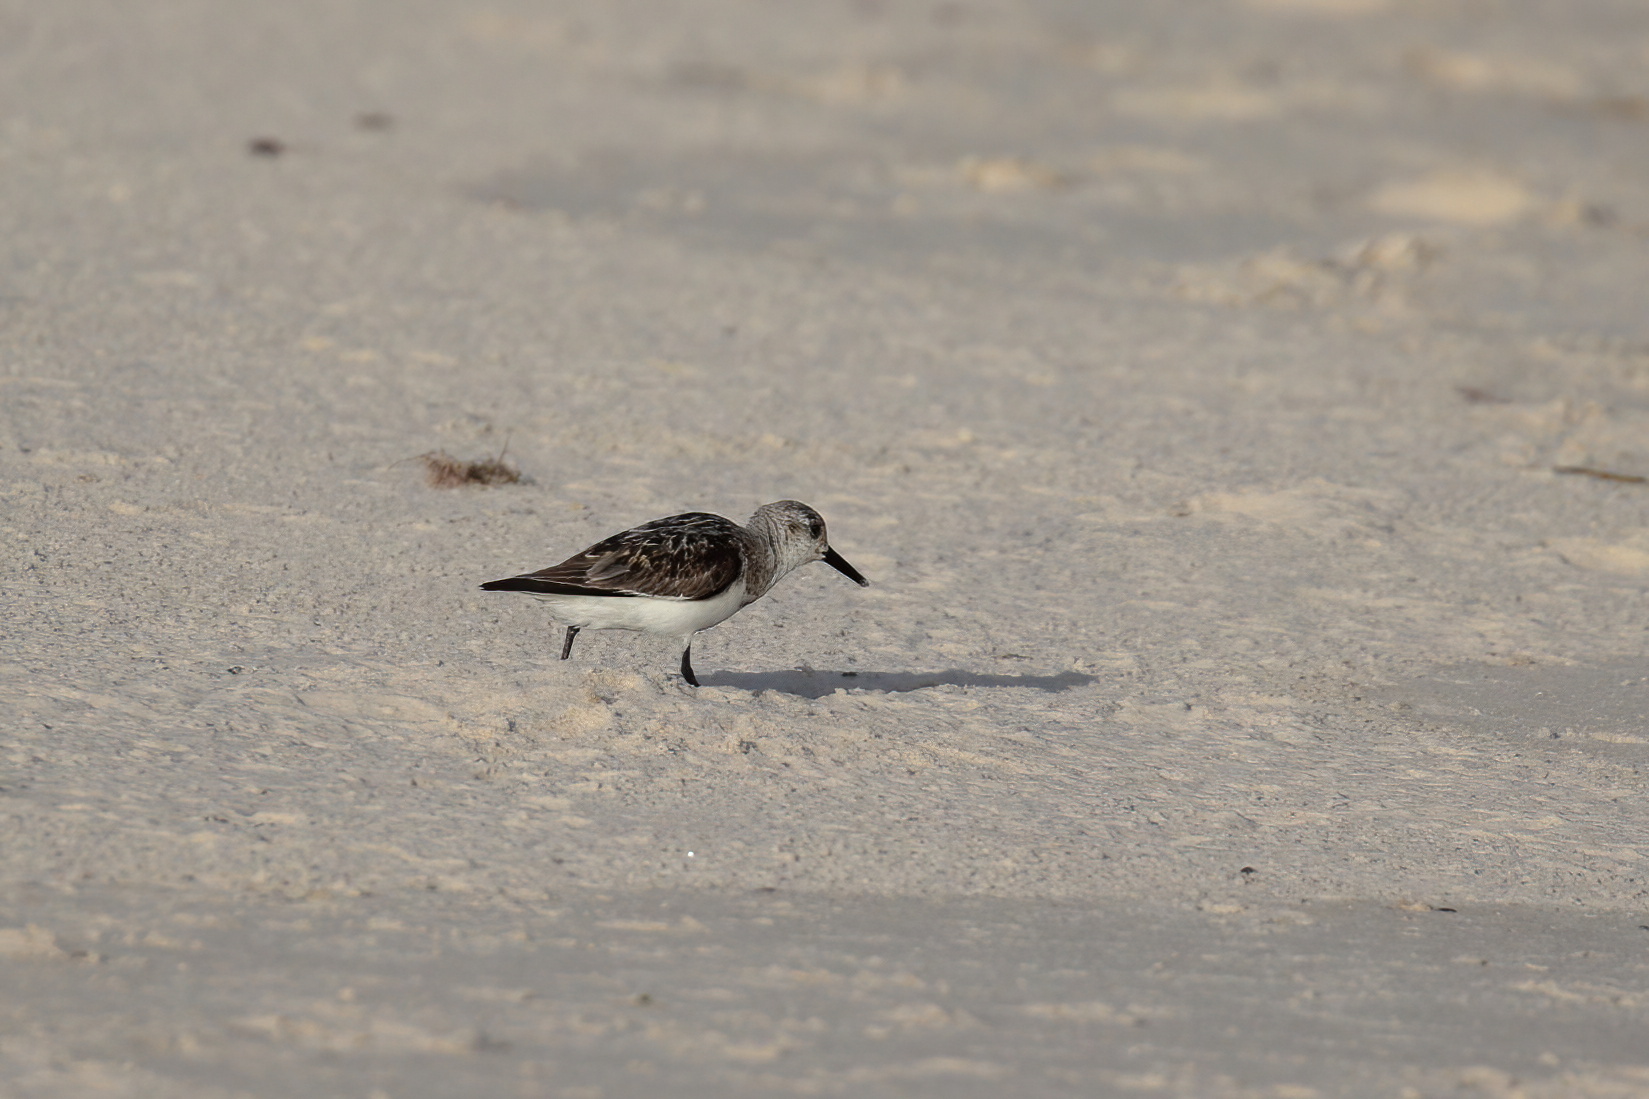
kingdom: Animalia
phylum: Chordata
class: Aves
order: Charadriiformes
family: Scolopacidae
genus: Calidris
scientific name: Calidris alba
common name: Sanderling
